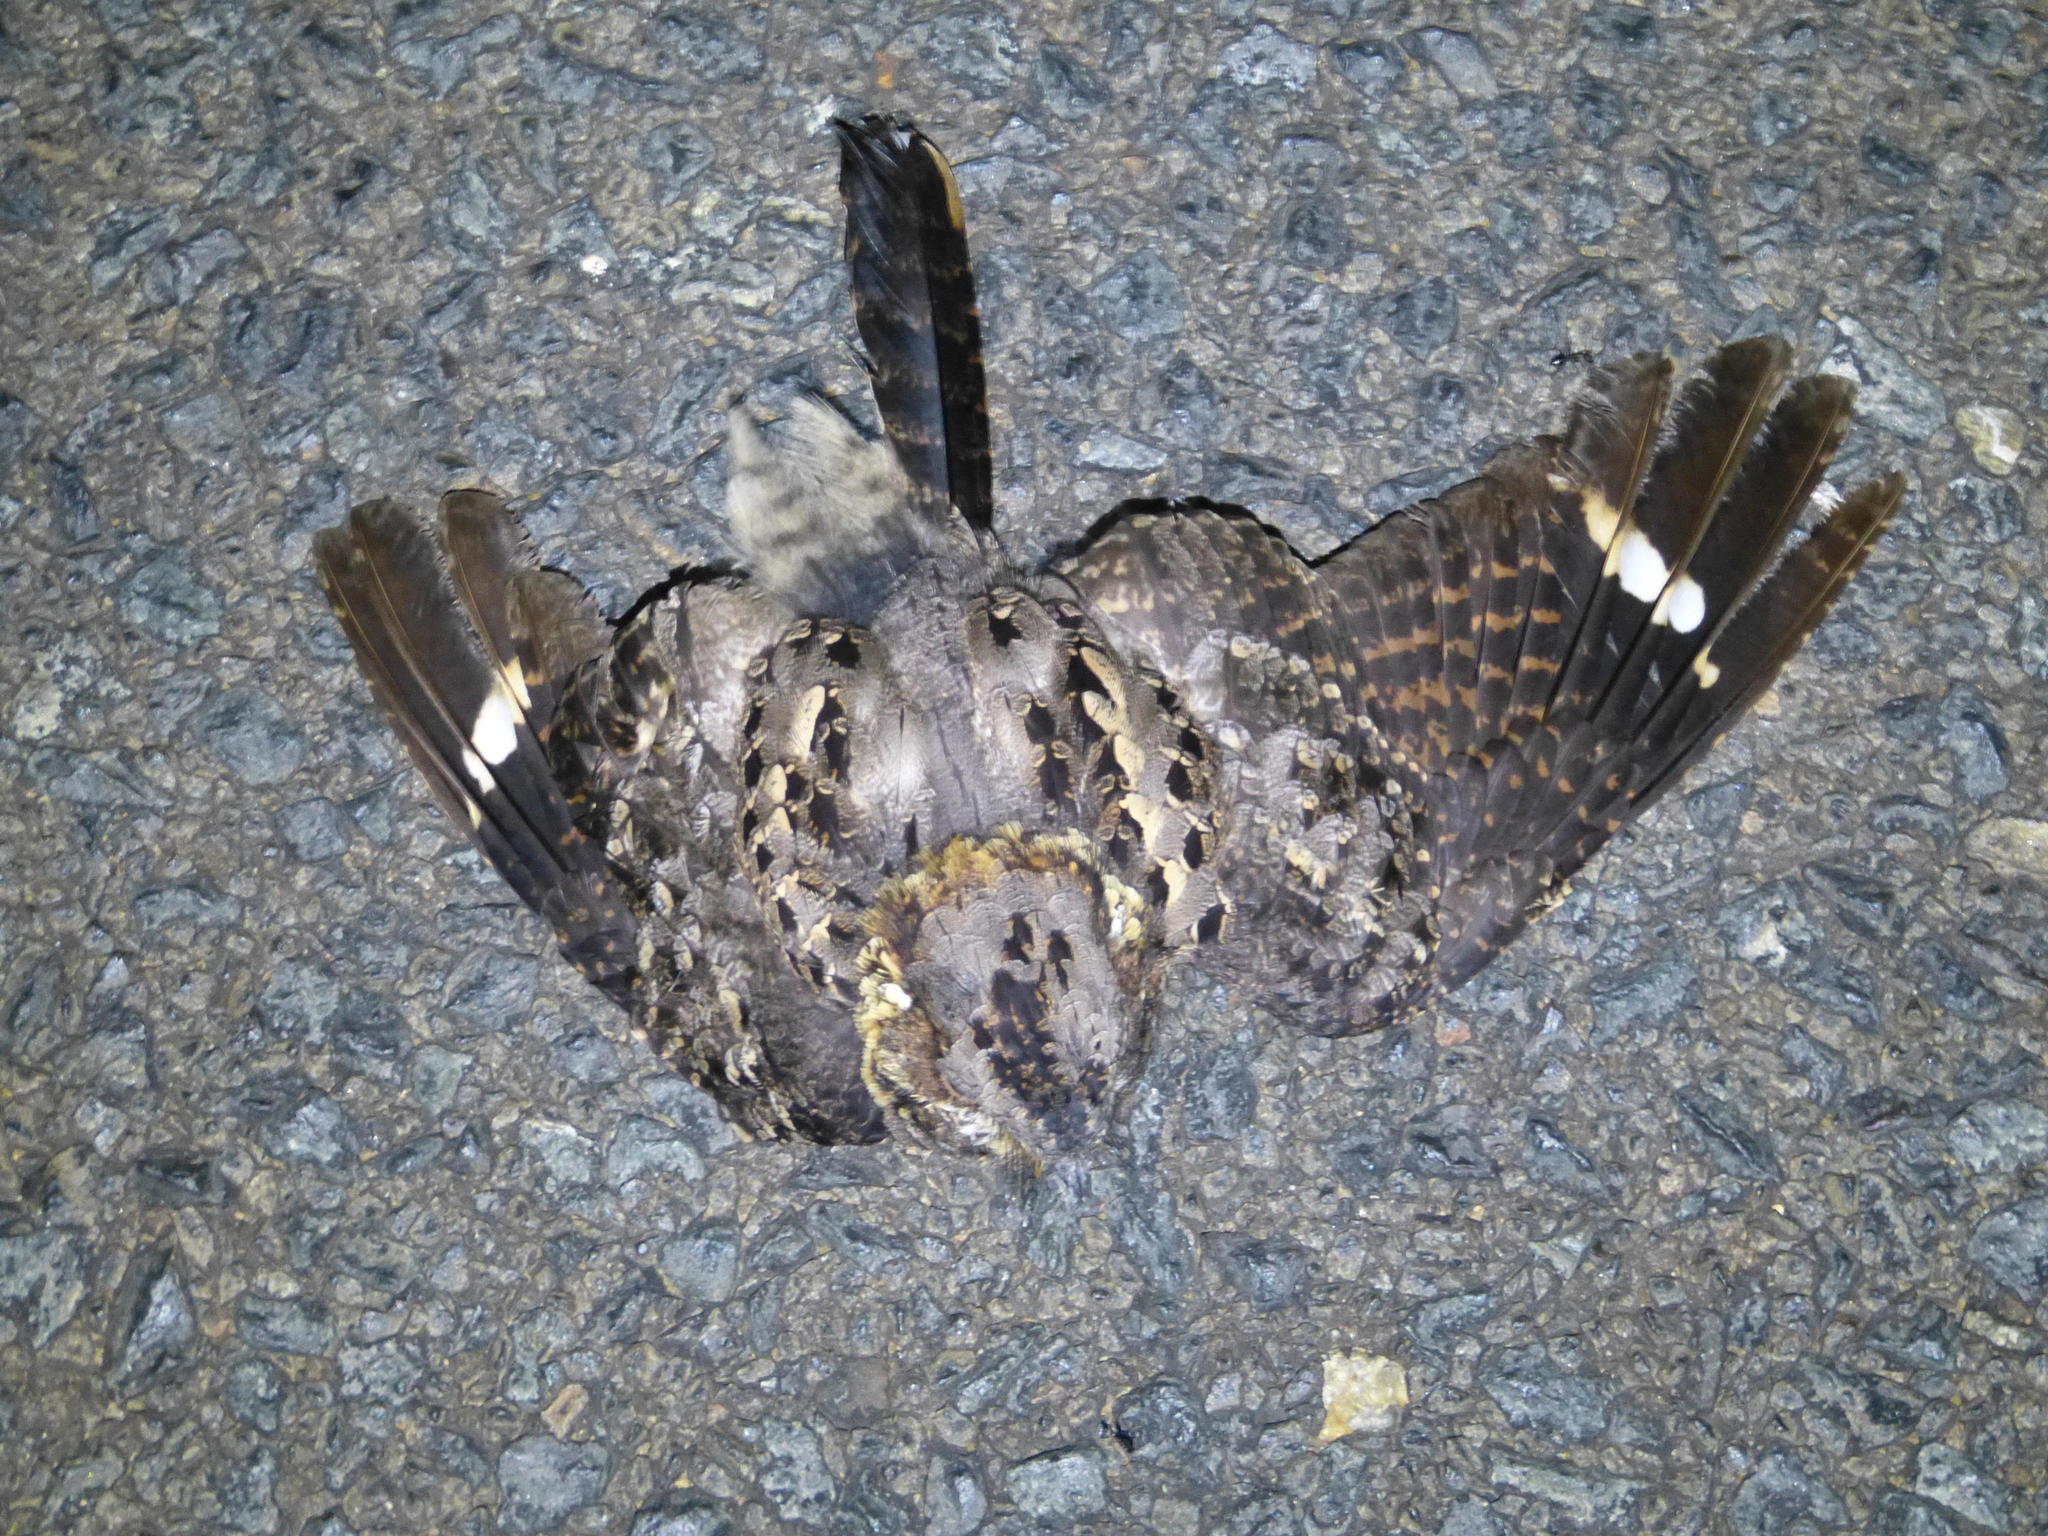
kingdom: Animalia
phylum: Chordata
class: Aves
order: Caprimulgiformes
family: Caprimulgidae
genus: Caprimulgus
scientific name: Caprimulgus pectoralis
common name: Fiery-necked nightjar
